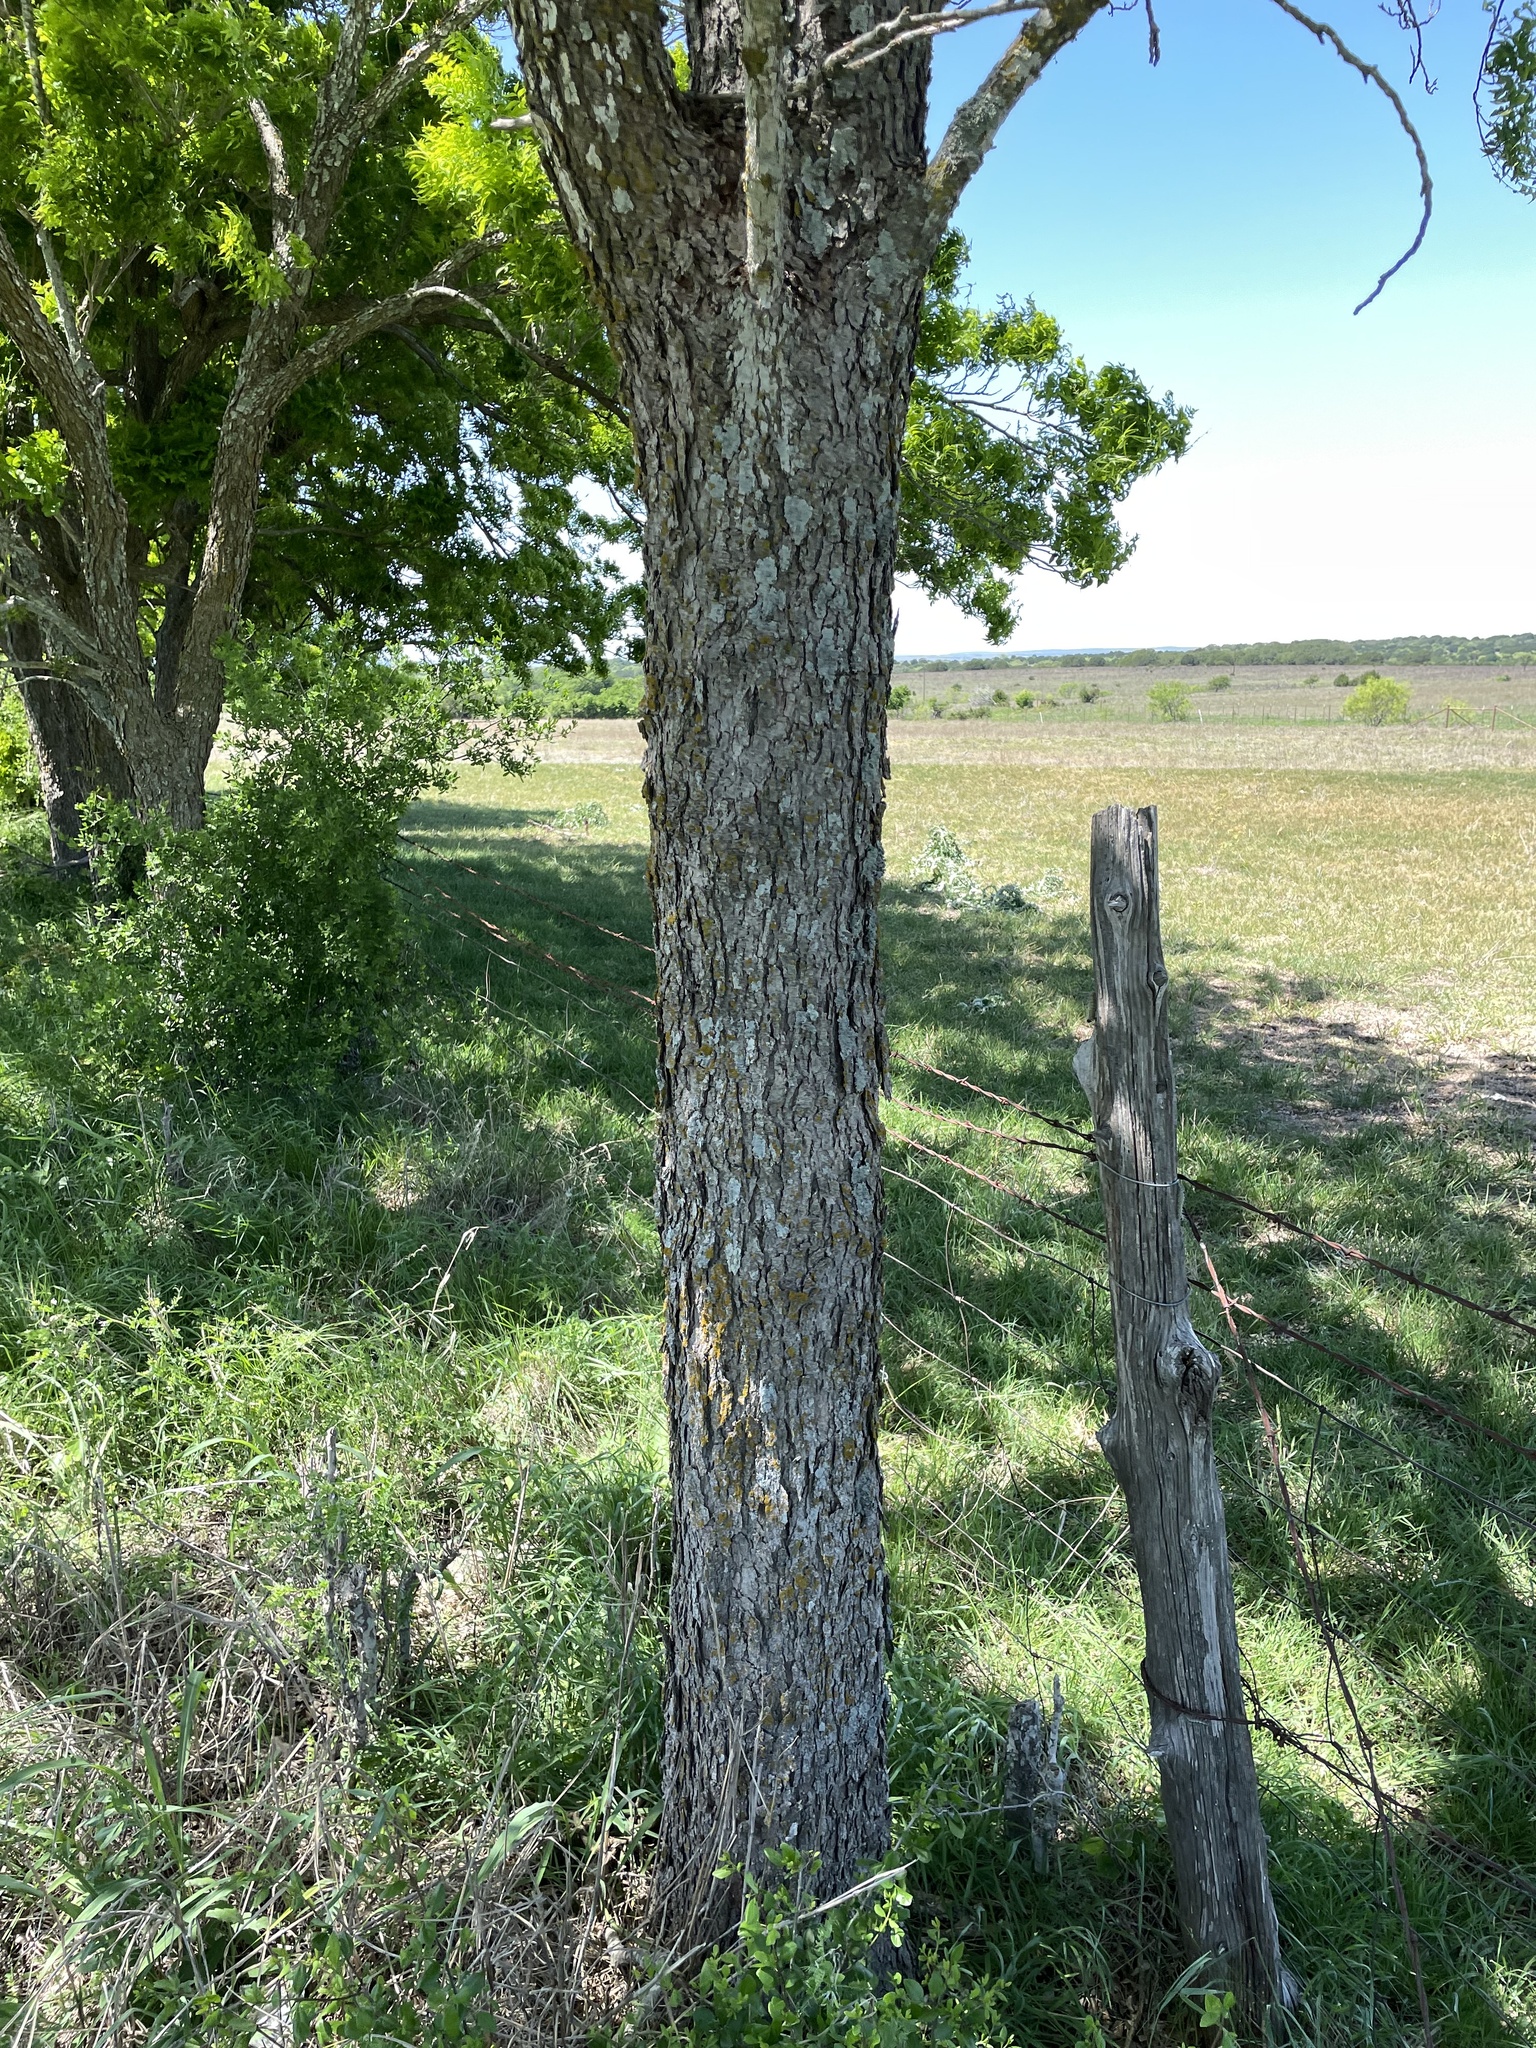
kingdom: Plantae
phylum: Tracheophyta
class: Magnoliopsida
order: Sapindales
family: Sapindaceae
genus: Sapindus
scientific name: Sapindus drummondii
